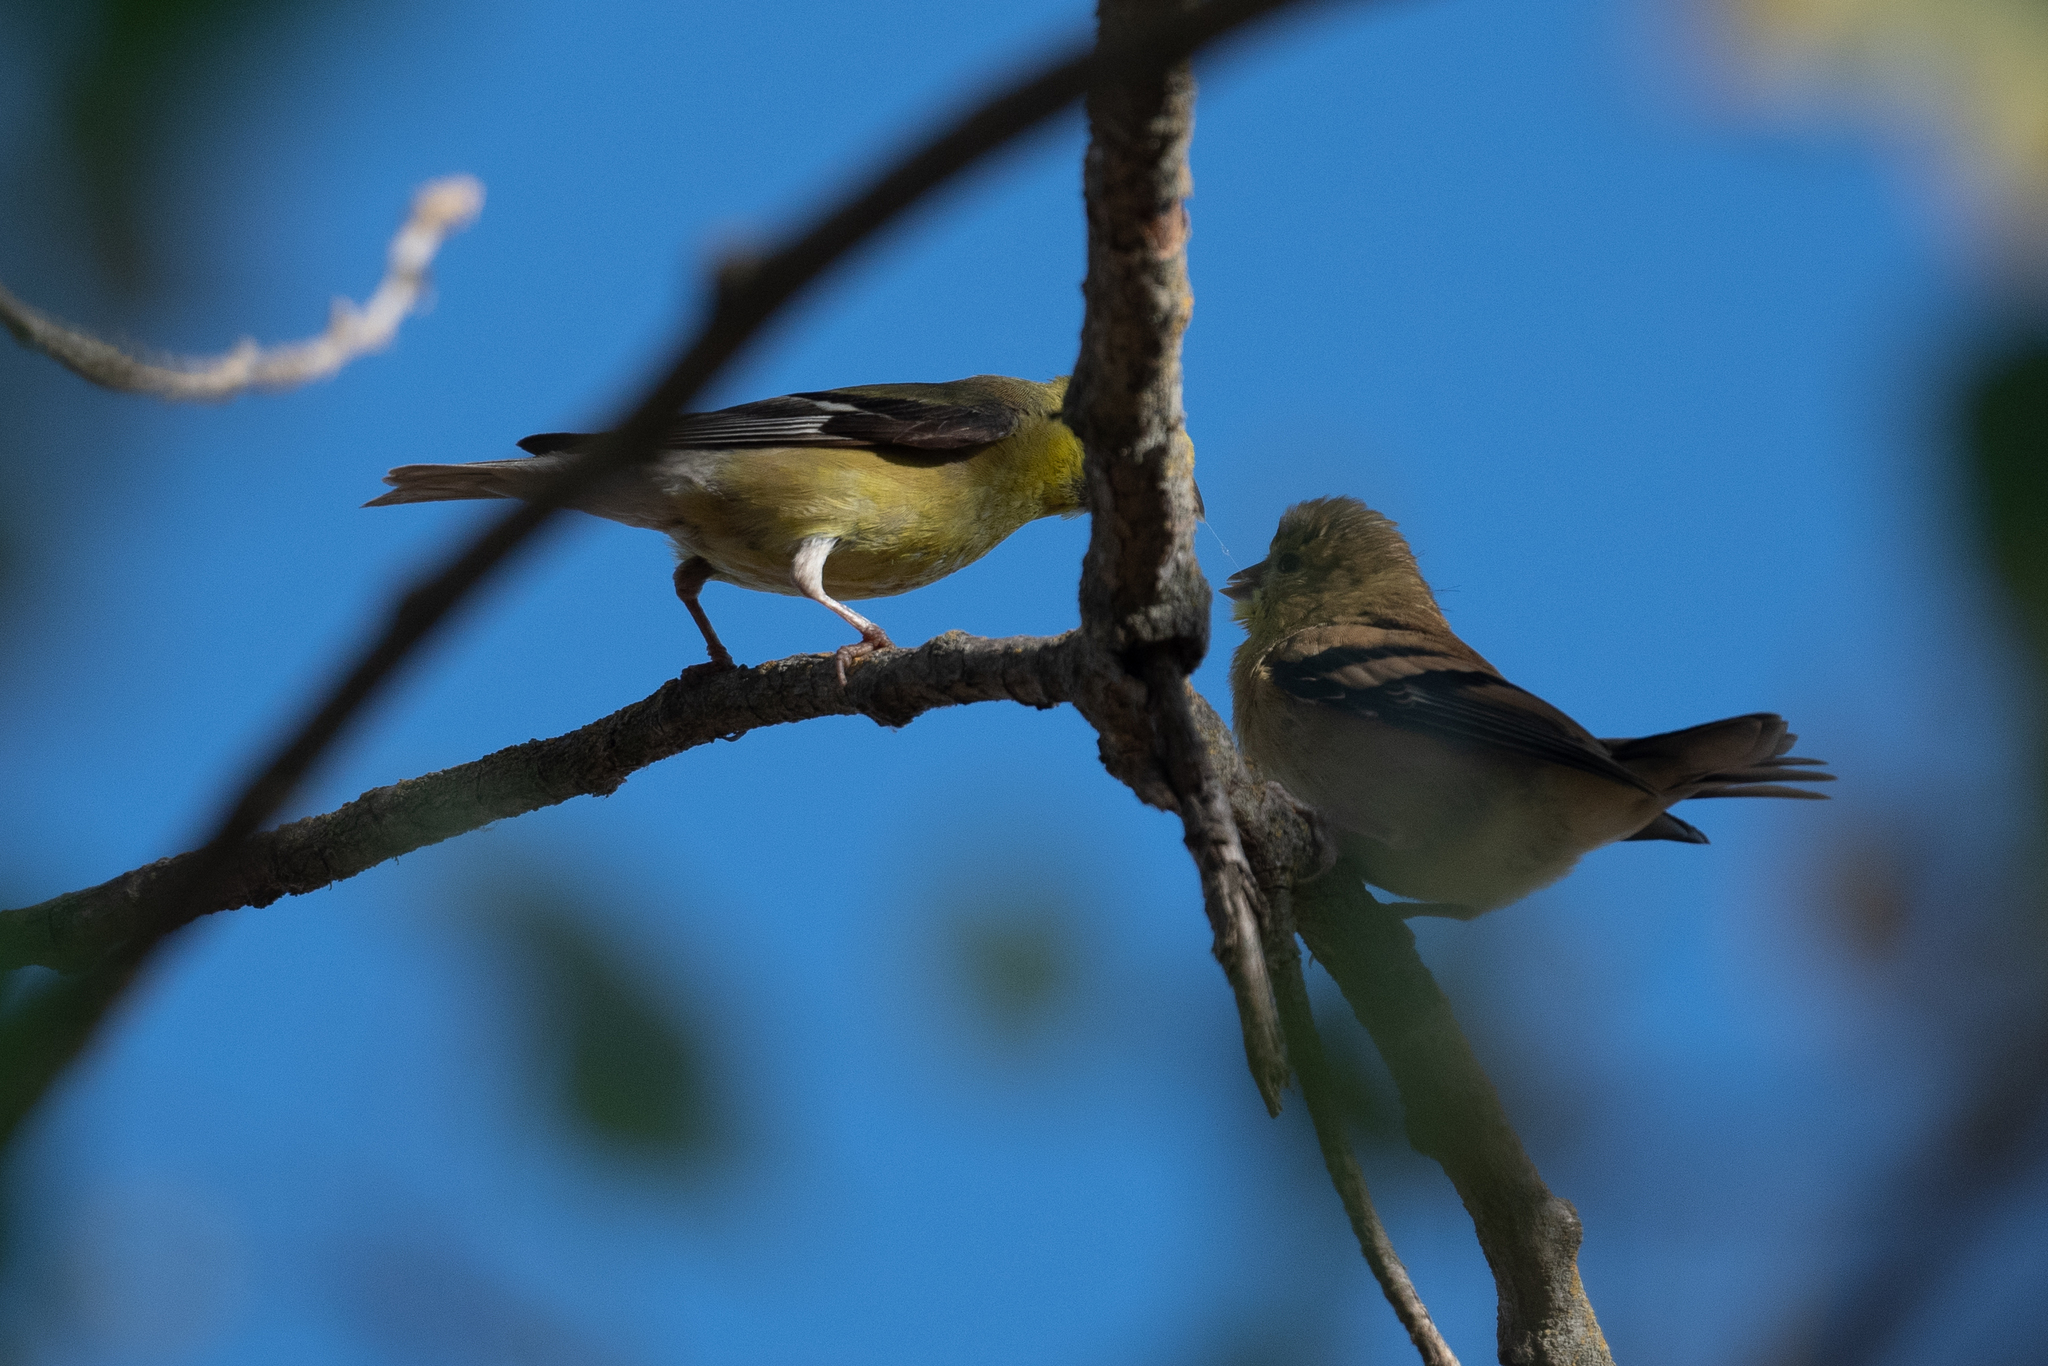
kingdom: Animalia
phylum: Chordata
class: Aves
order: Passeriformes
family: Fringillidae
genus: Spinus
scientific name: Spinus psaltria
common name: Lesser goldfinch
